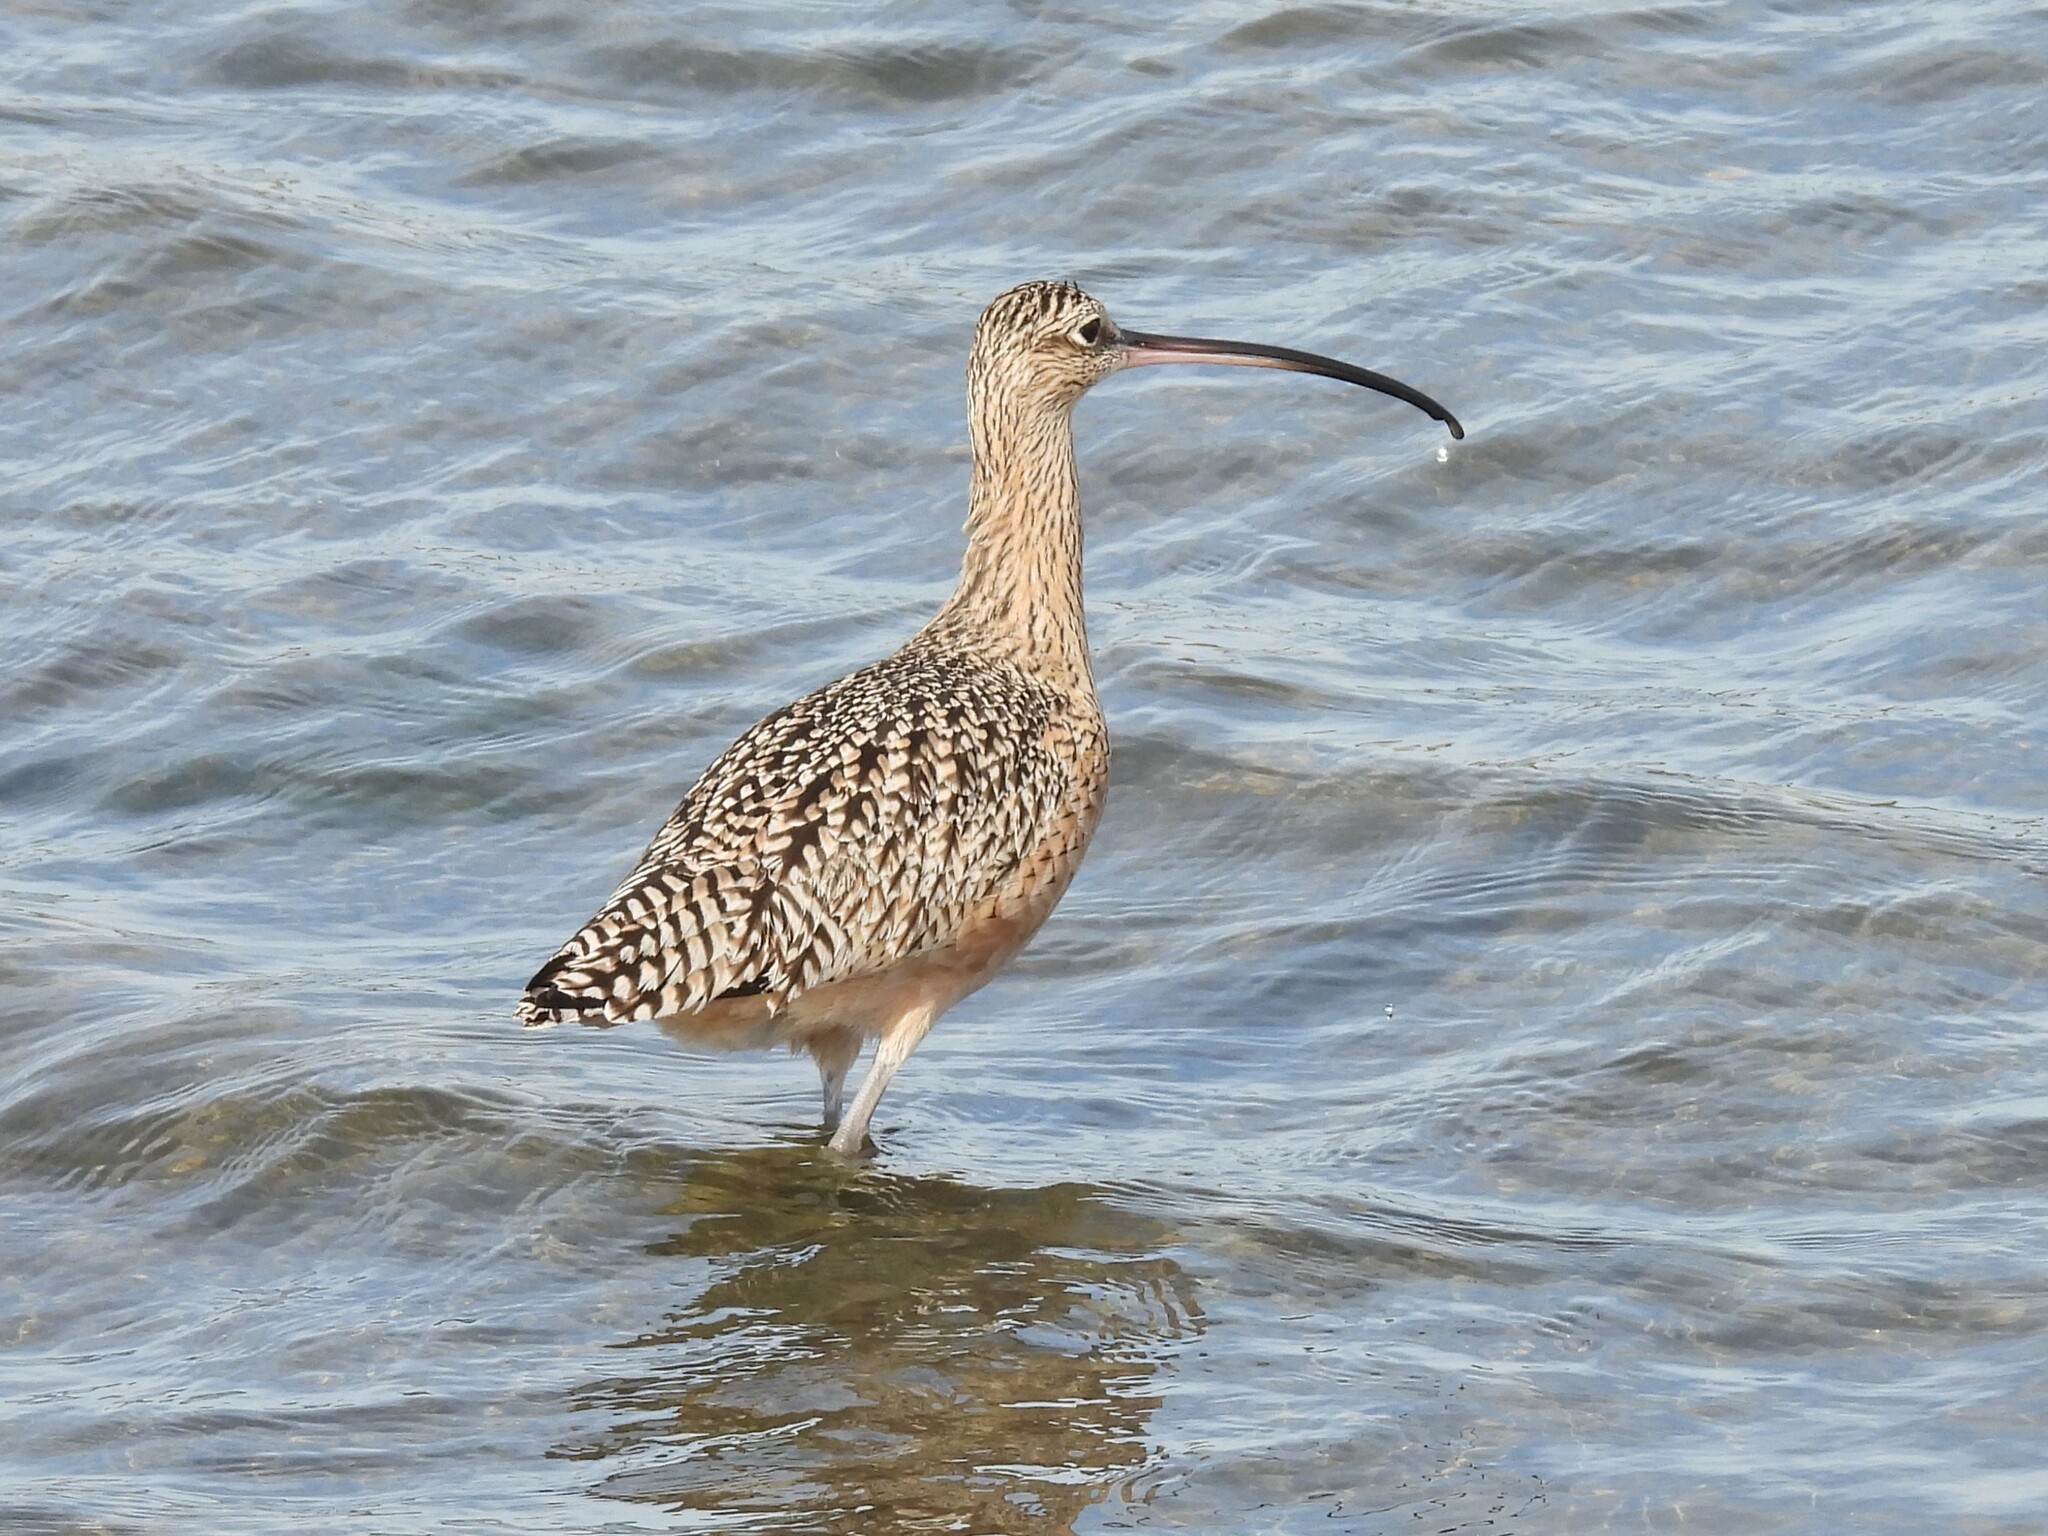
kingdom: Animalia
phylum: Chordata
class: Aves
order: Charadriiformes
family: Scolopacidae
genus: Numenius
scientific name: Numenius americanus
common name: Long-billed curlew
